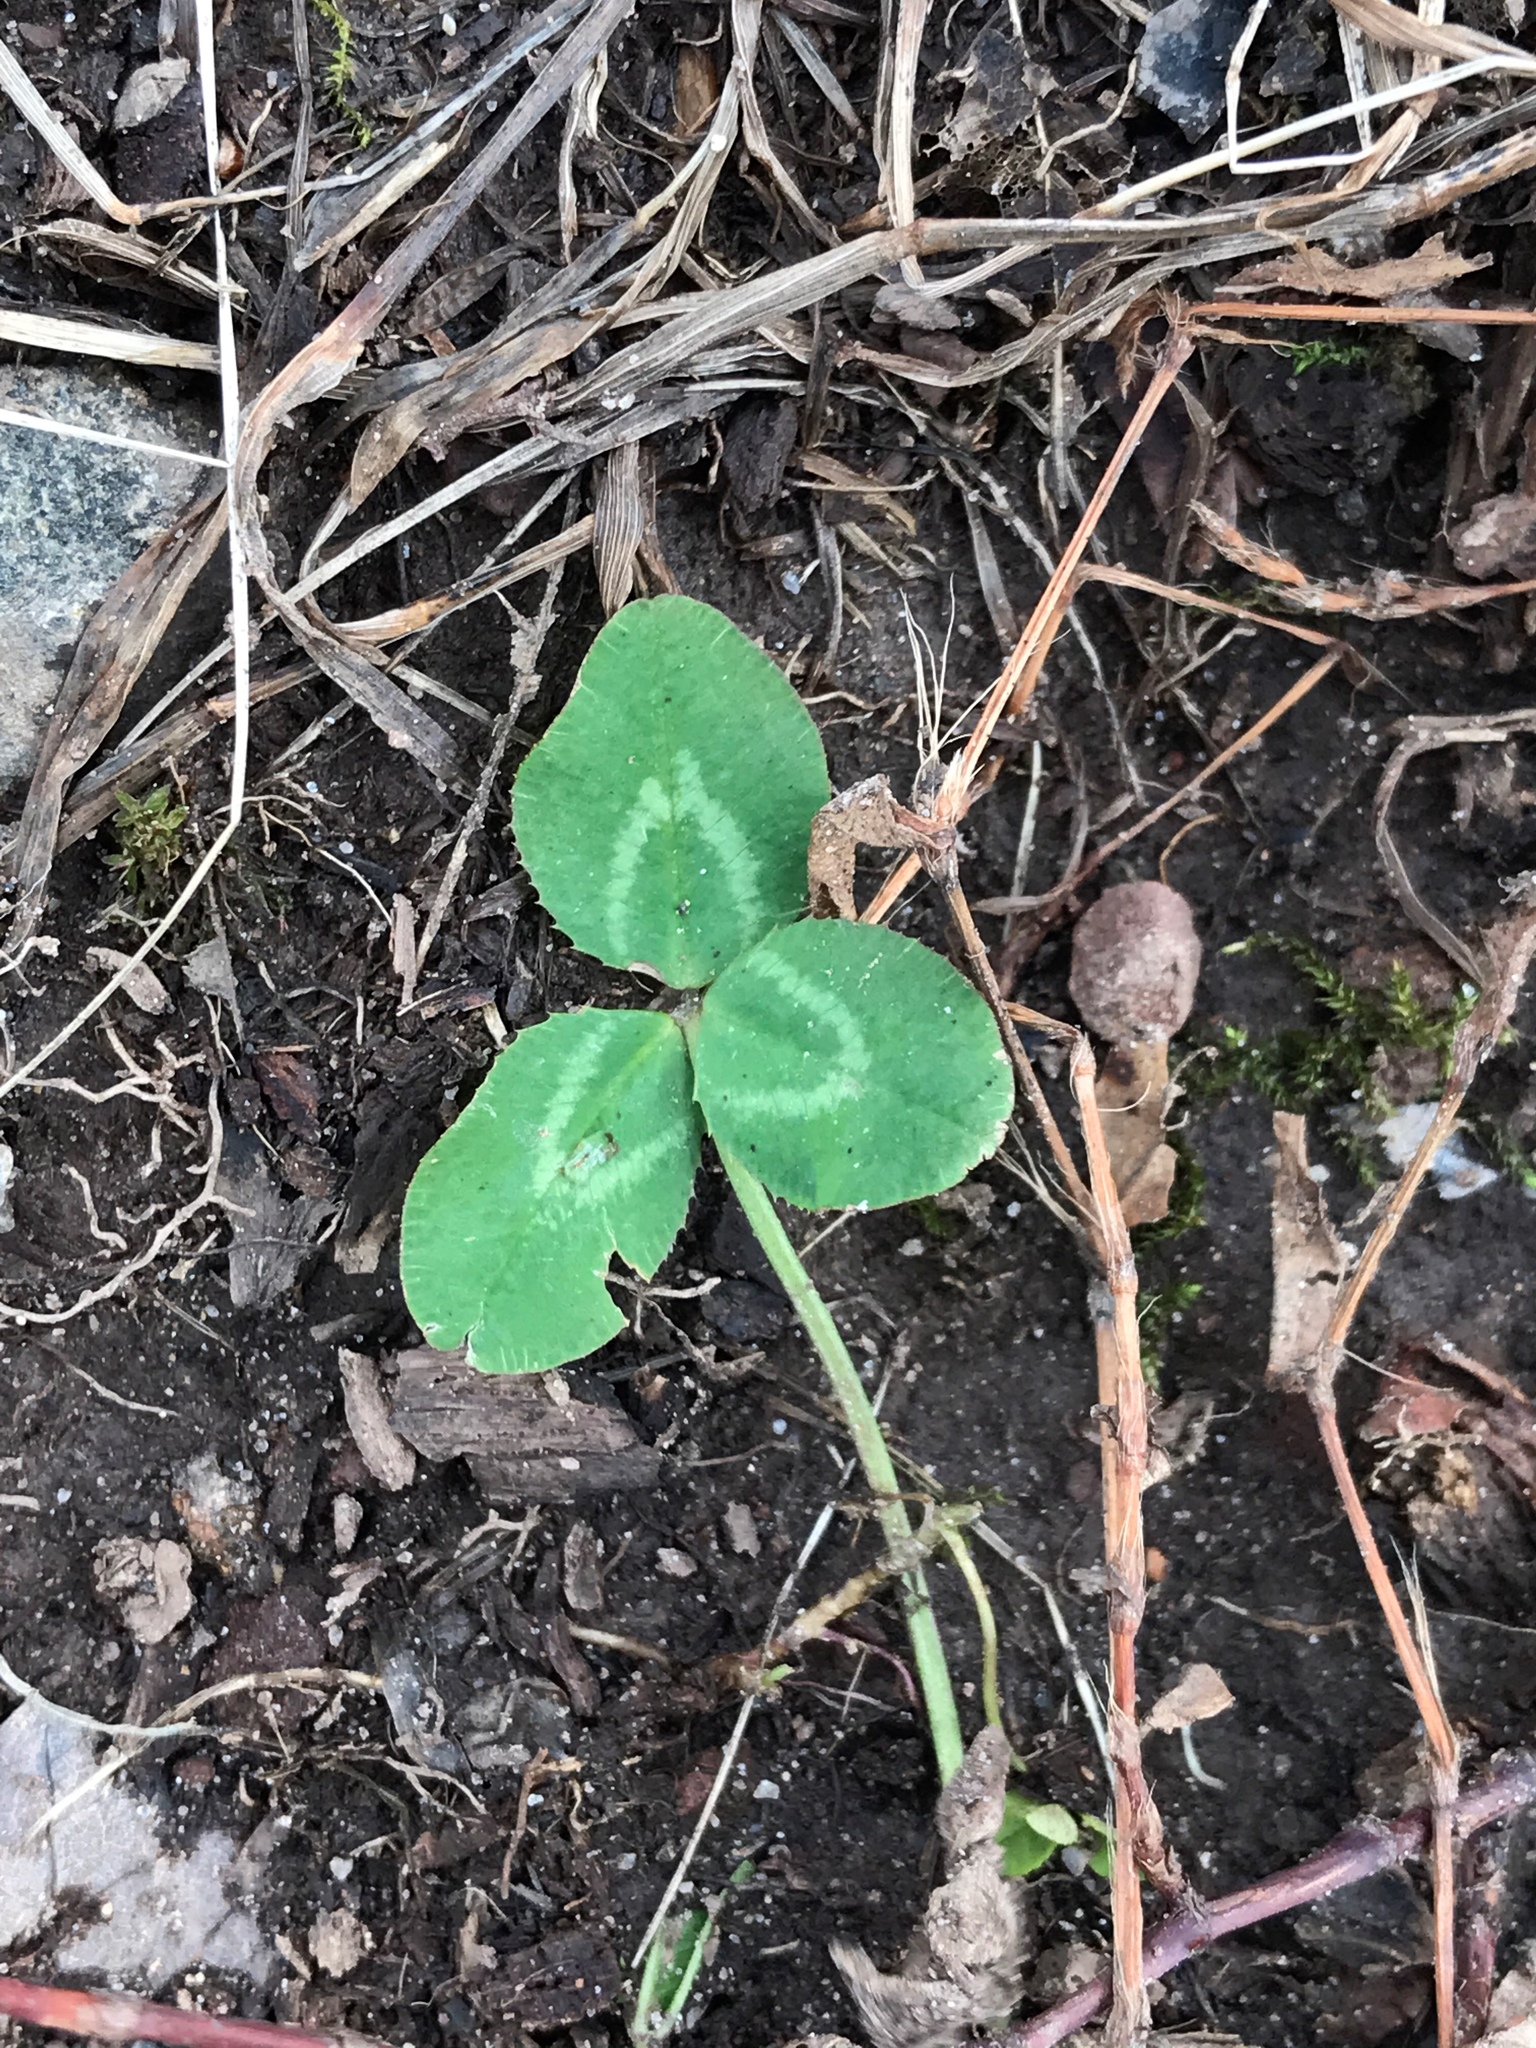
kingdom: Plantae
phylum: Tracheophyta
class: Magnoliopsida
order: Fabales
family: Fabaceae
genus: Trifolium
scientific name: Trifolium repens
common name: White clover
